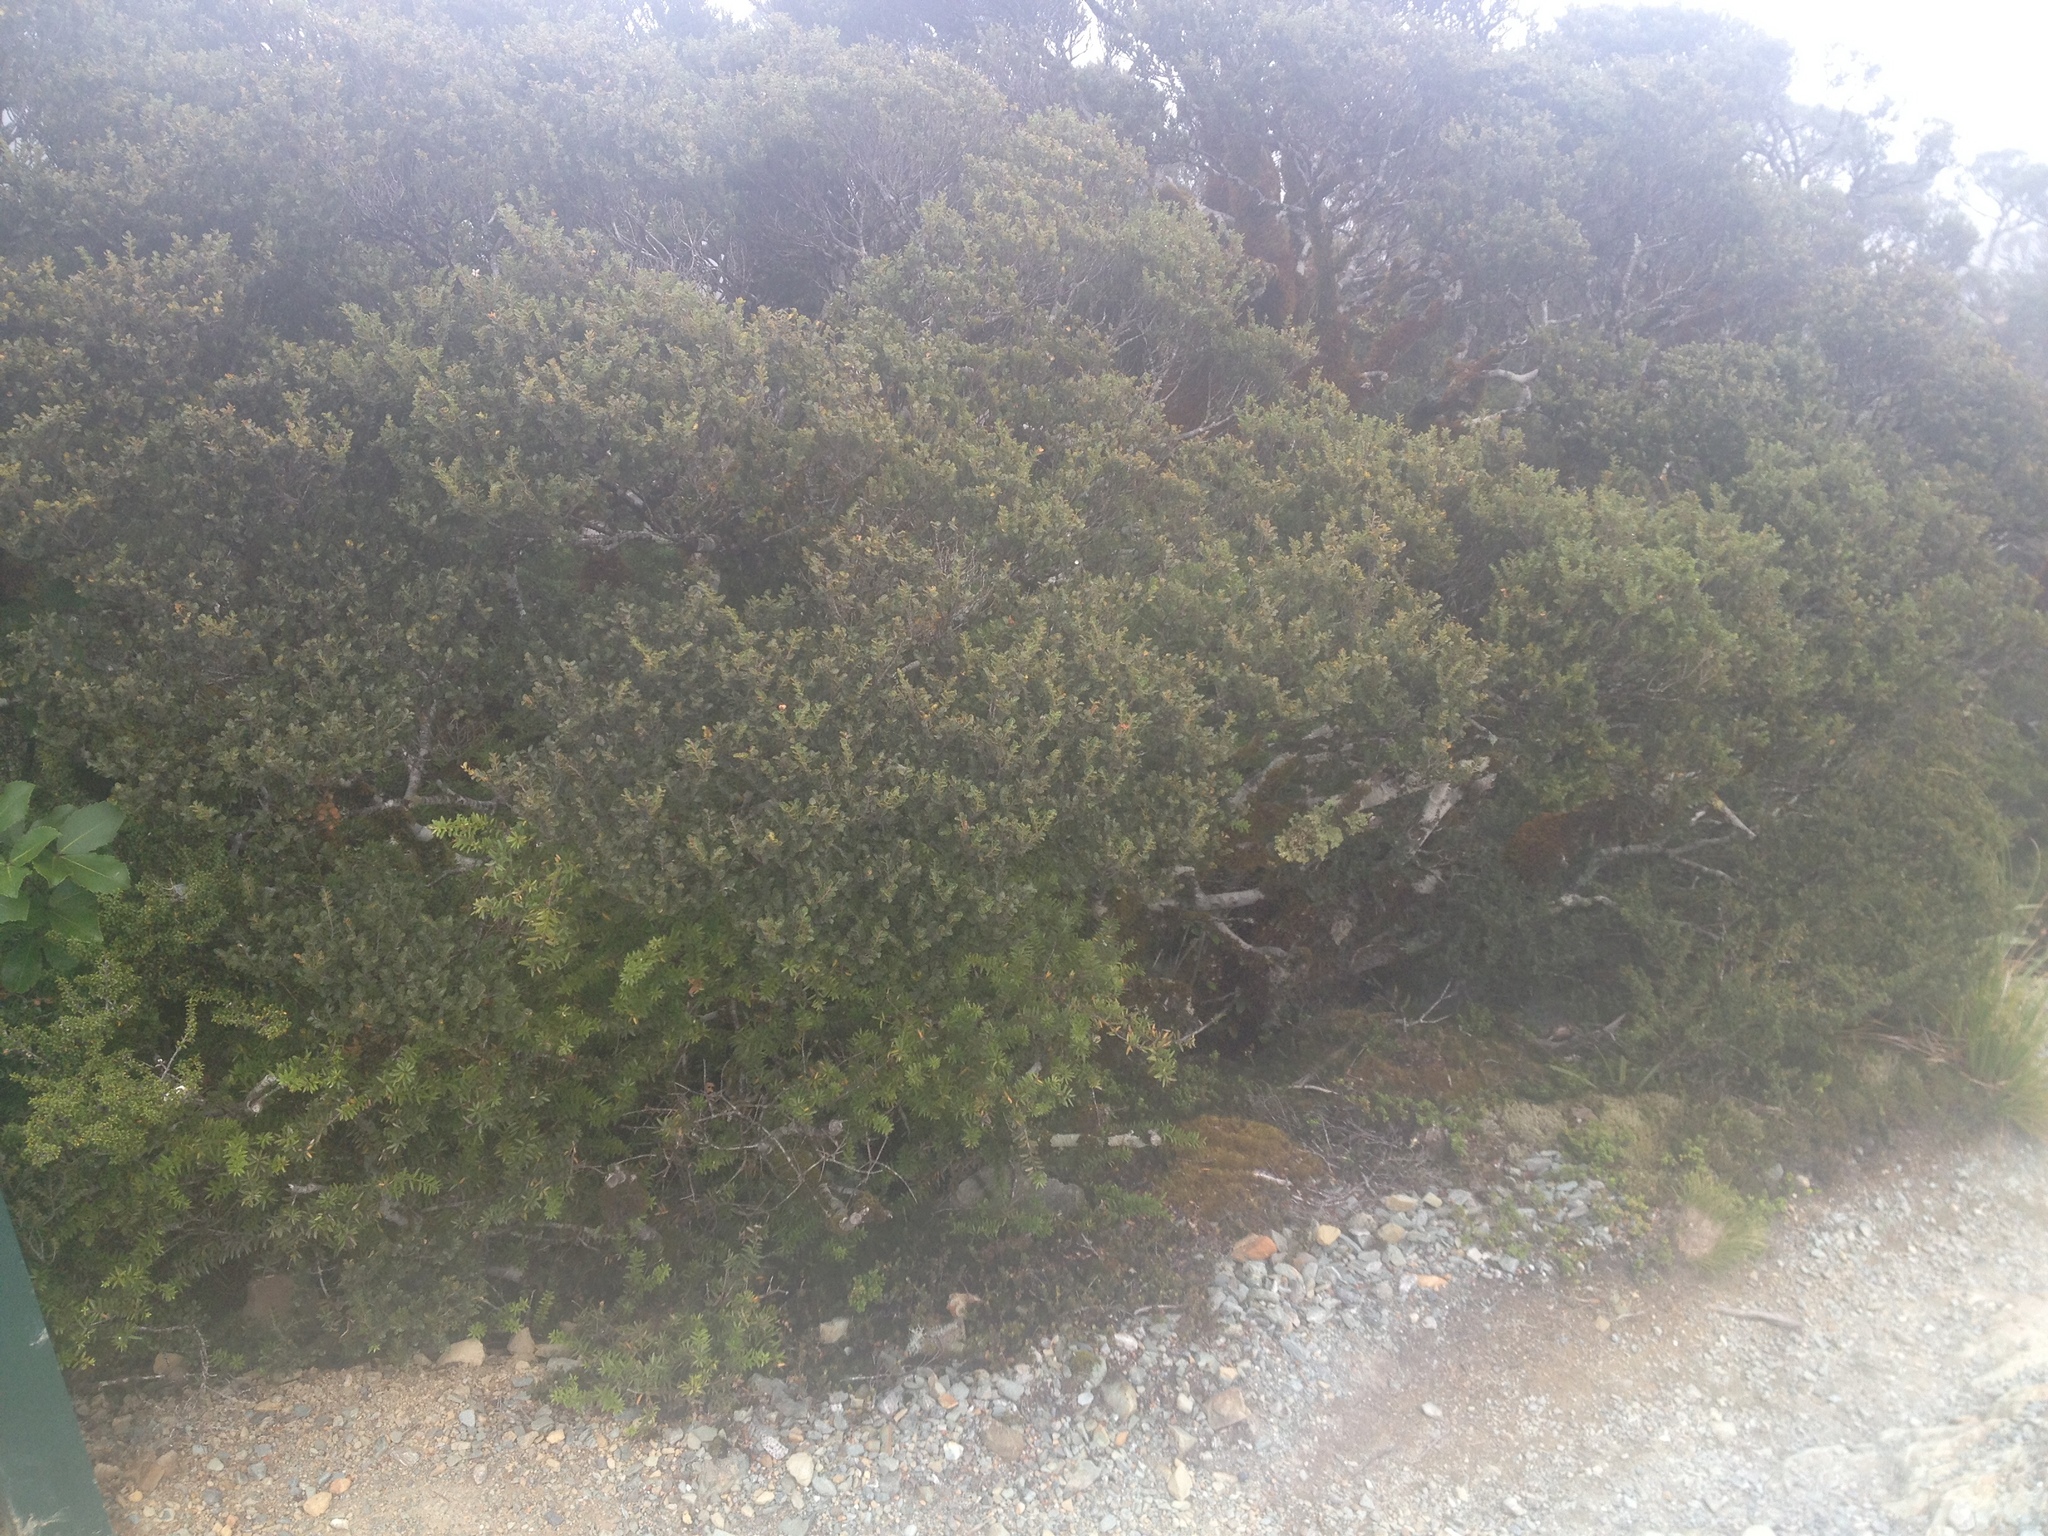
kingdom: Plantae
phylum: Tracheophyta
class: Magnoliopsida
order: Fagales
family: Nothofagaceae
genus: Nothofagus
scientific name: Nothofagus menziesii
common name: Silver beech
